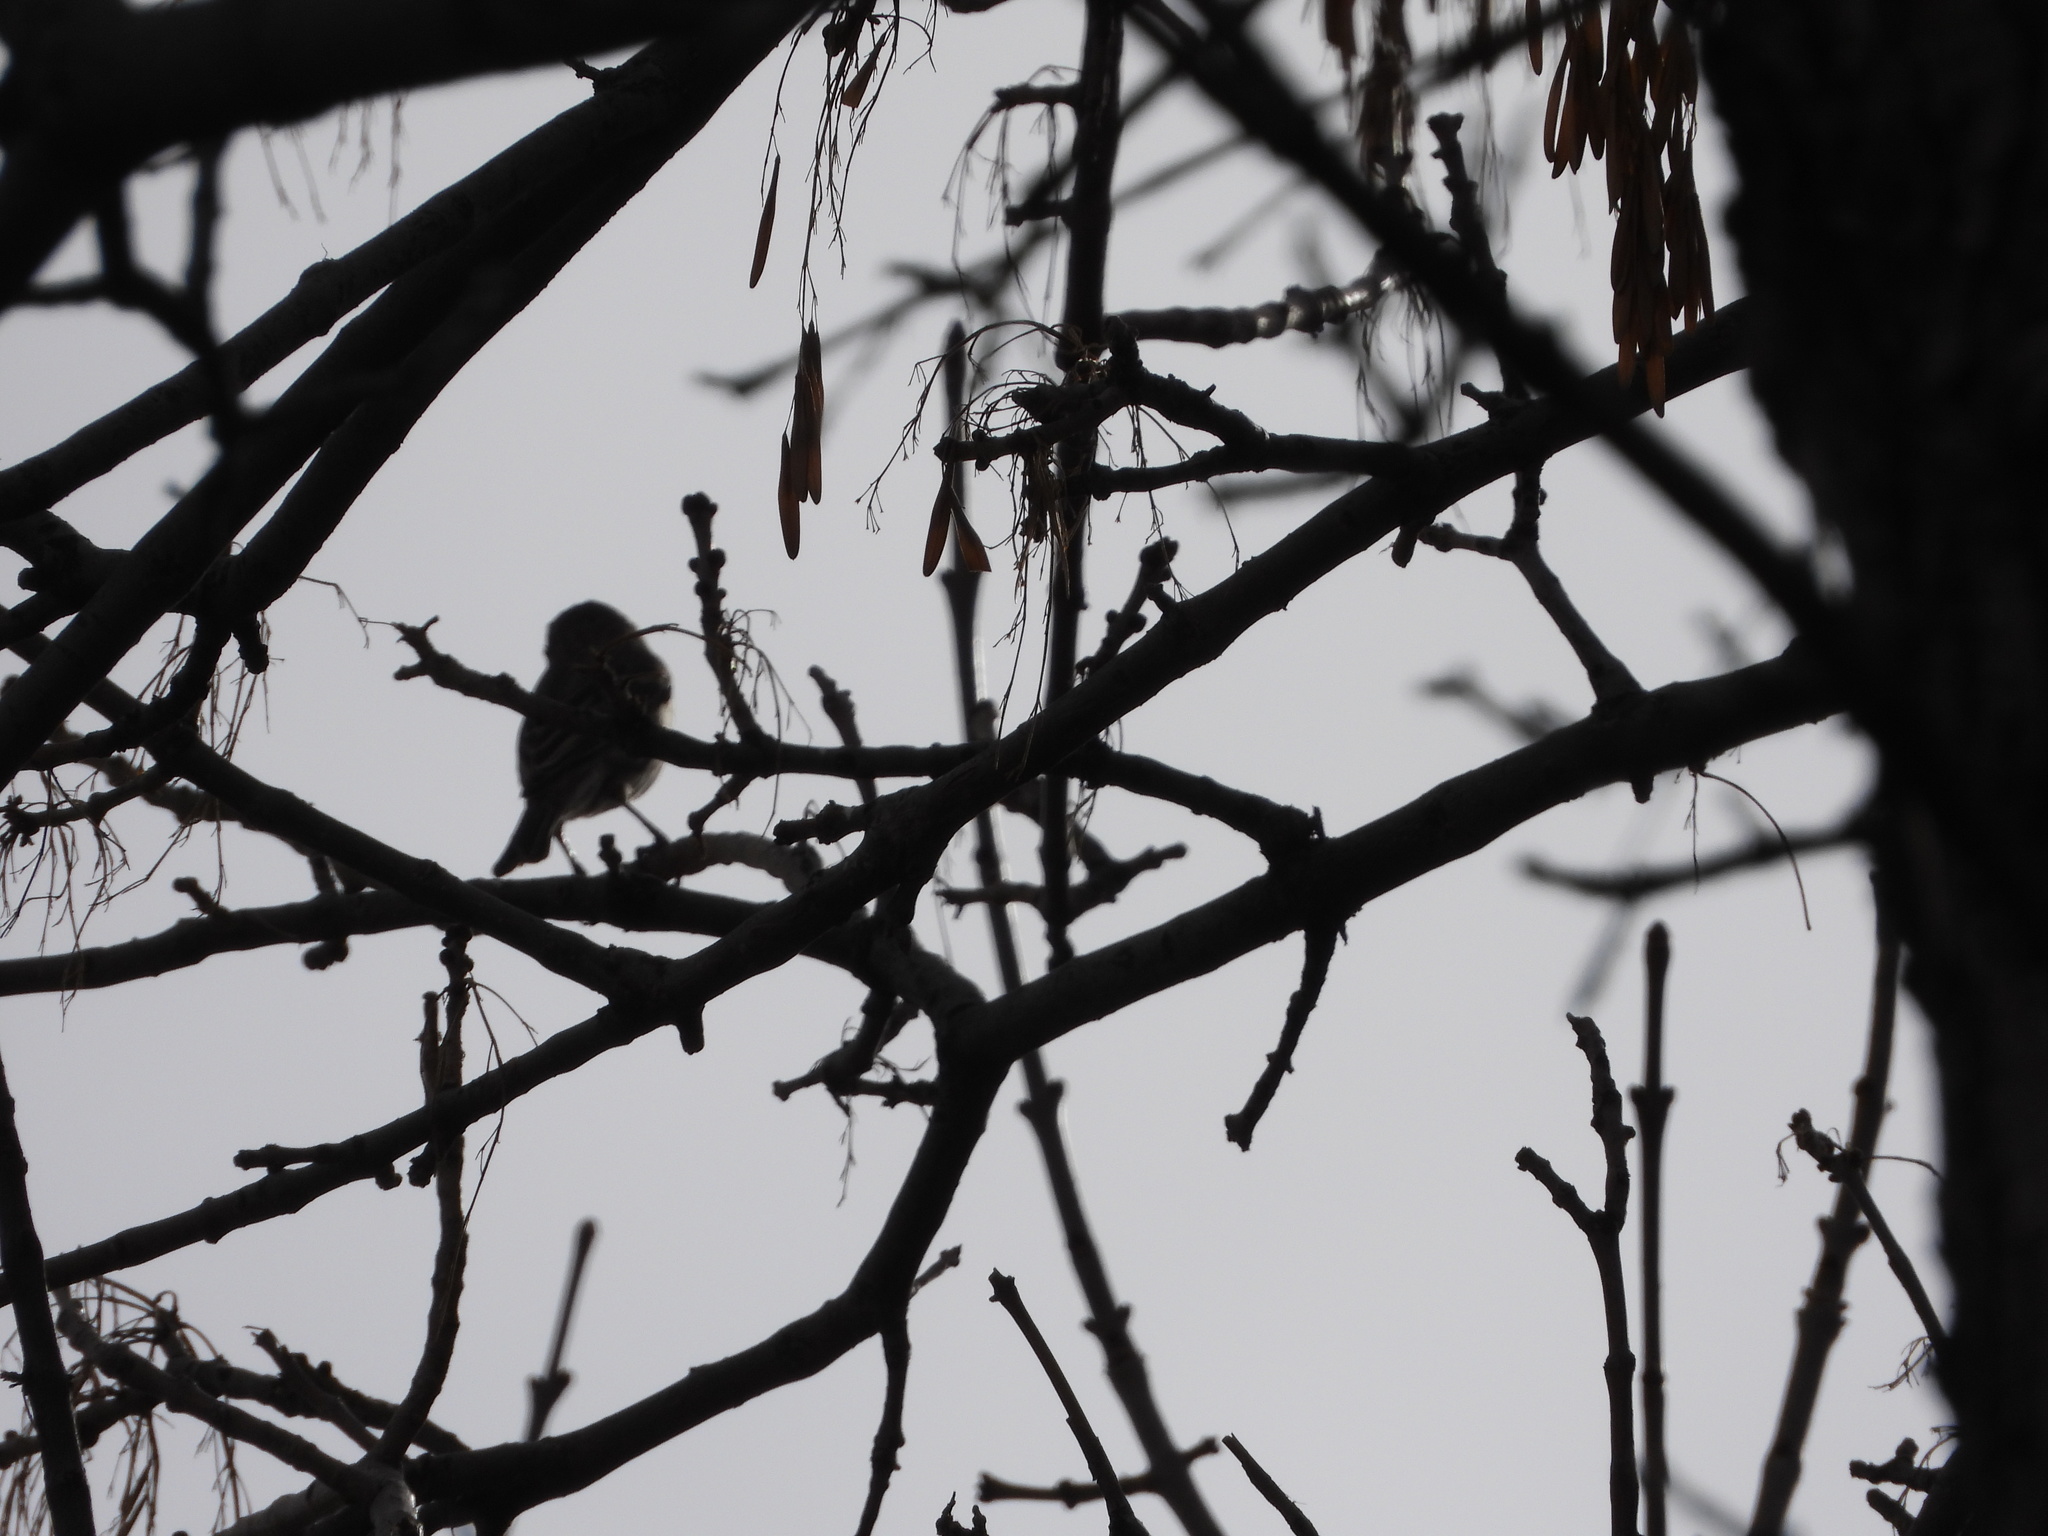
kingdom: Animalia
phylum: Chordata
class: Aves
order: Passeriformes
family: Fringillidae
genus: Haemorhous
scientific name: Haemorhous mexicanus
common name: House finch
